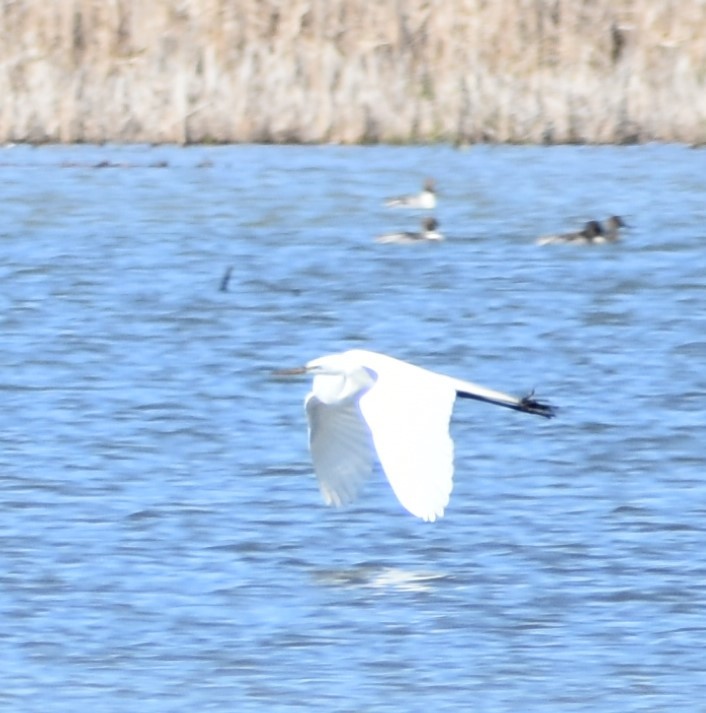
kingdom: Animalia
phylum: Chordata
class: Aves
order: Pelecaniformes
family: Ardeidae
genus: Ardea
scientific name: Ardea alba
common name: Great egret
